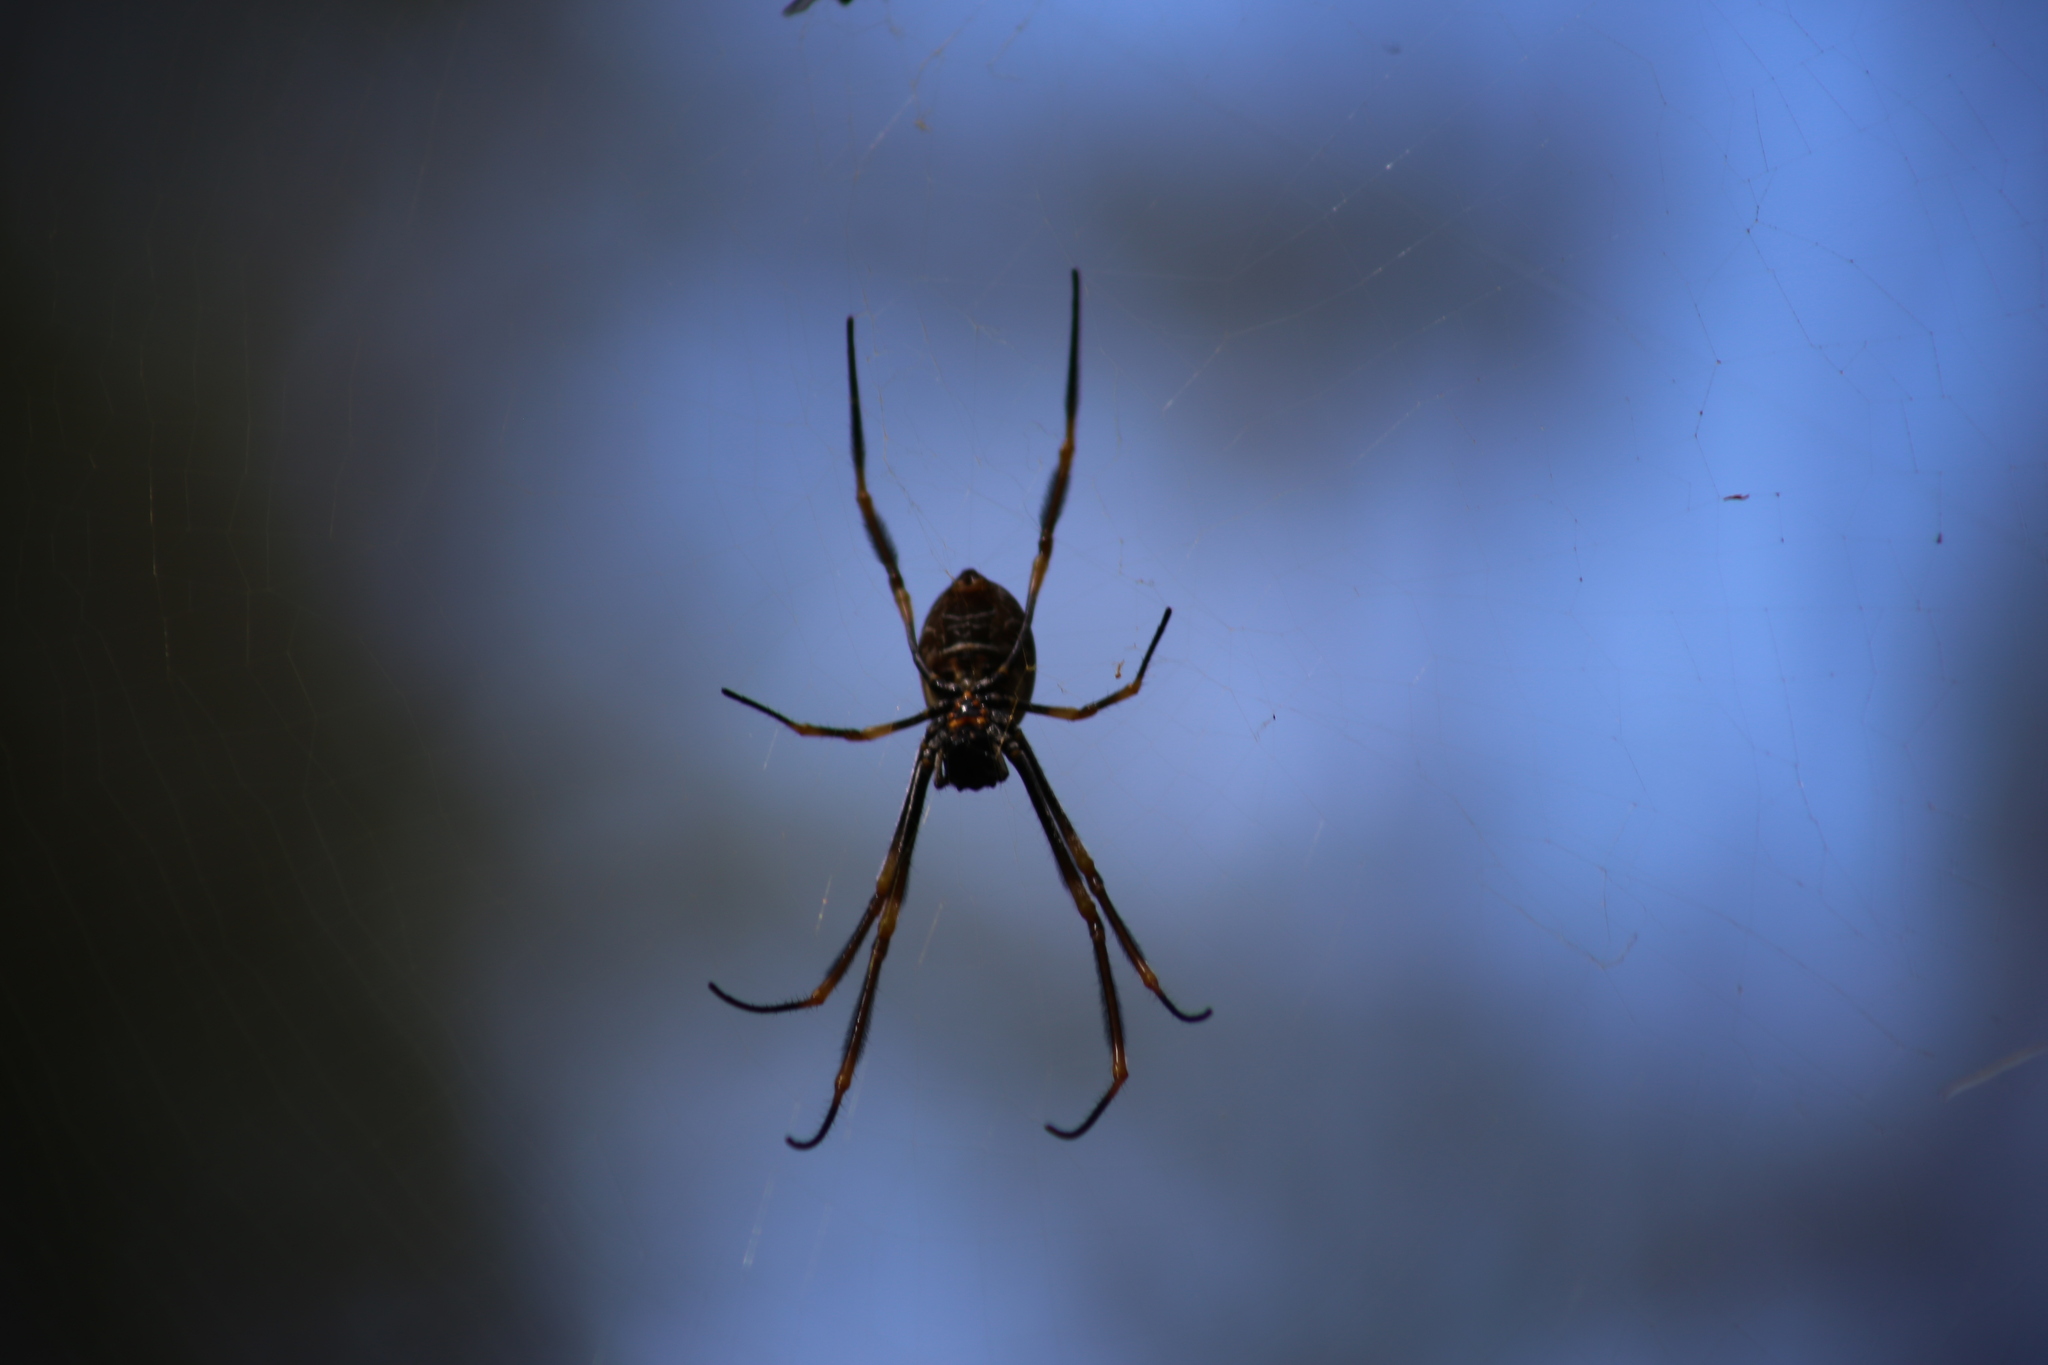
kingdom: Animalia
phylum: Arthropoda
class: Arachnida
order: Araneae
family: Araneidae
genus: Trichonephila
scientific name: Trichonephila plumipes
